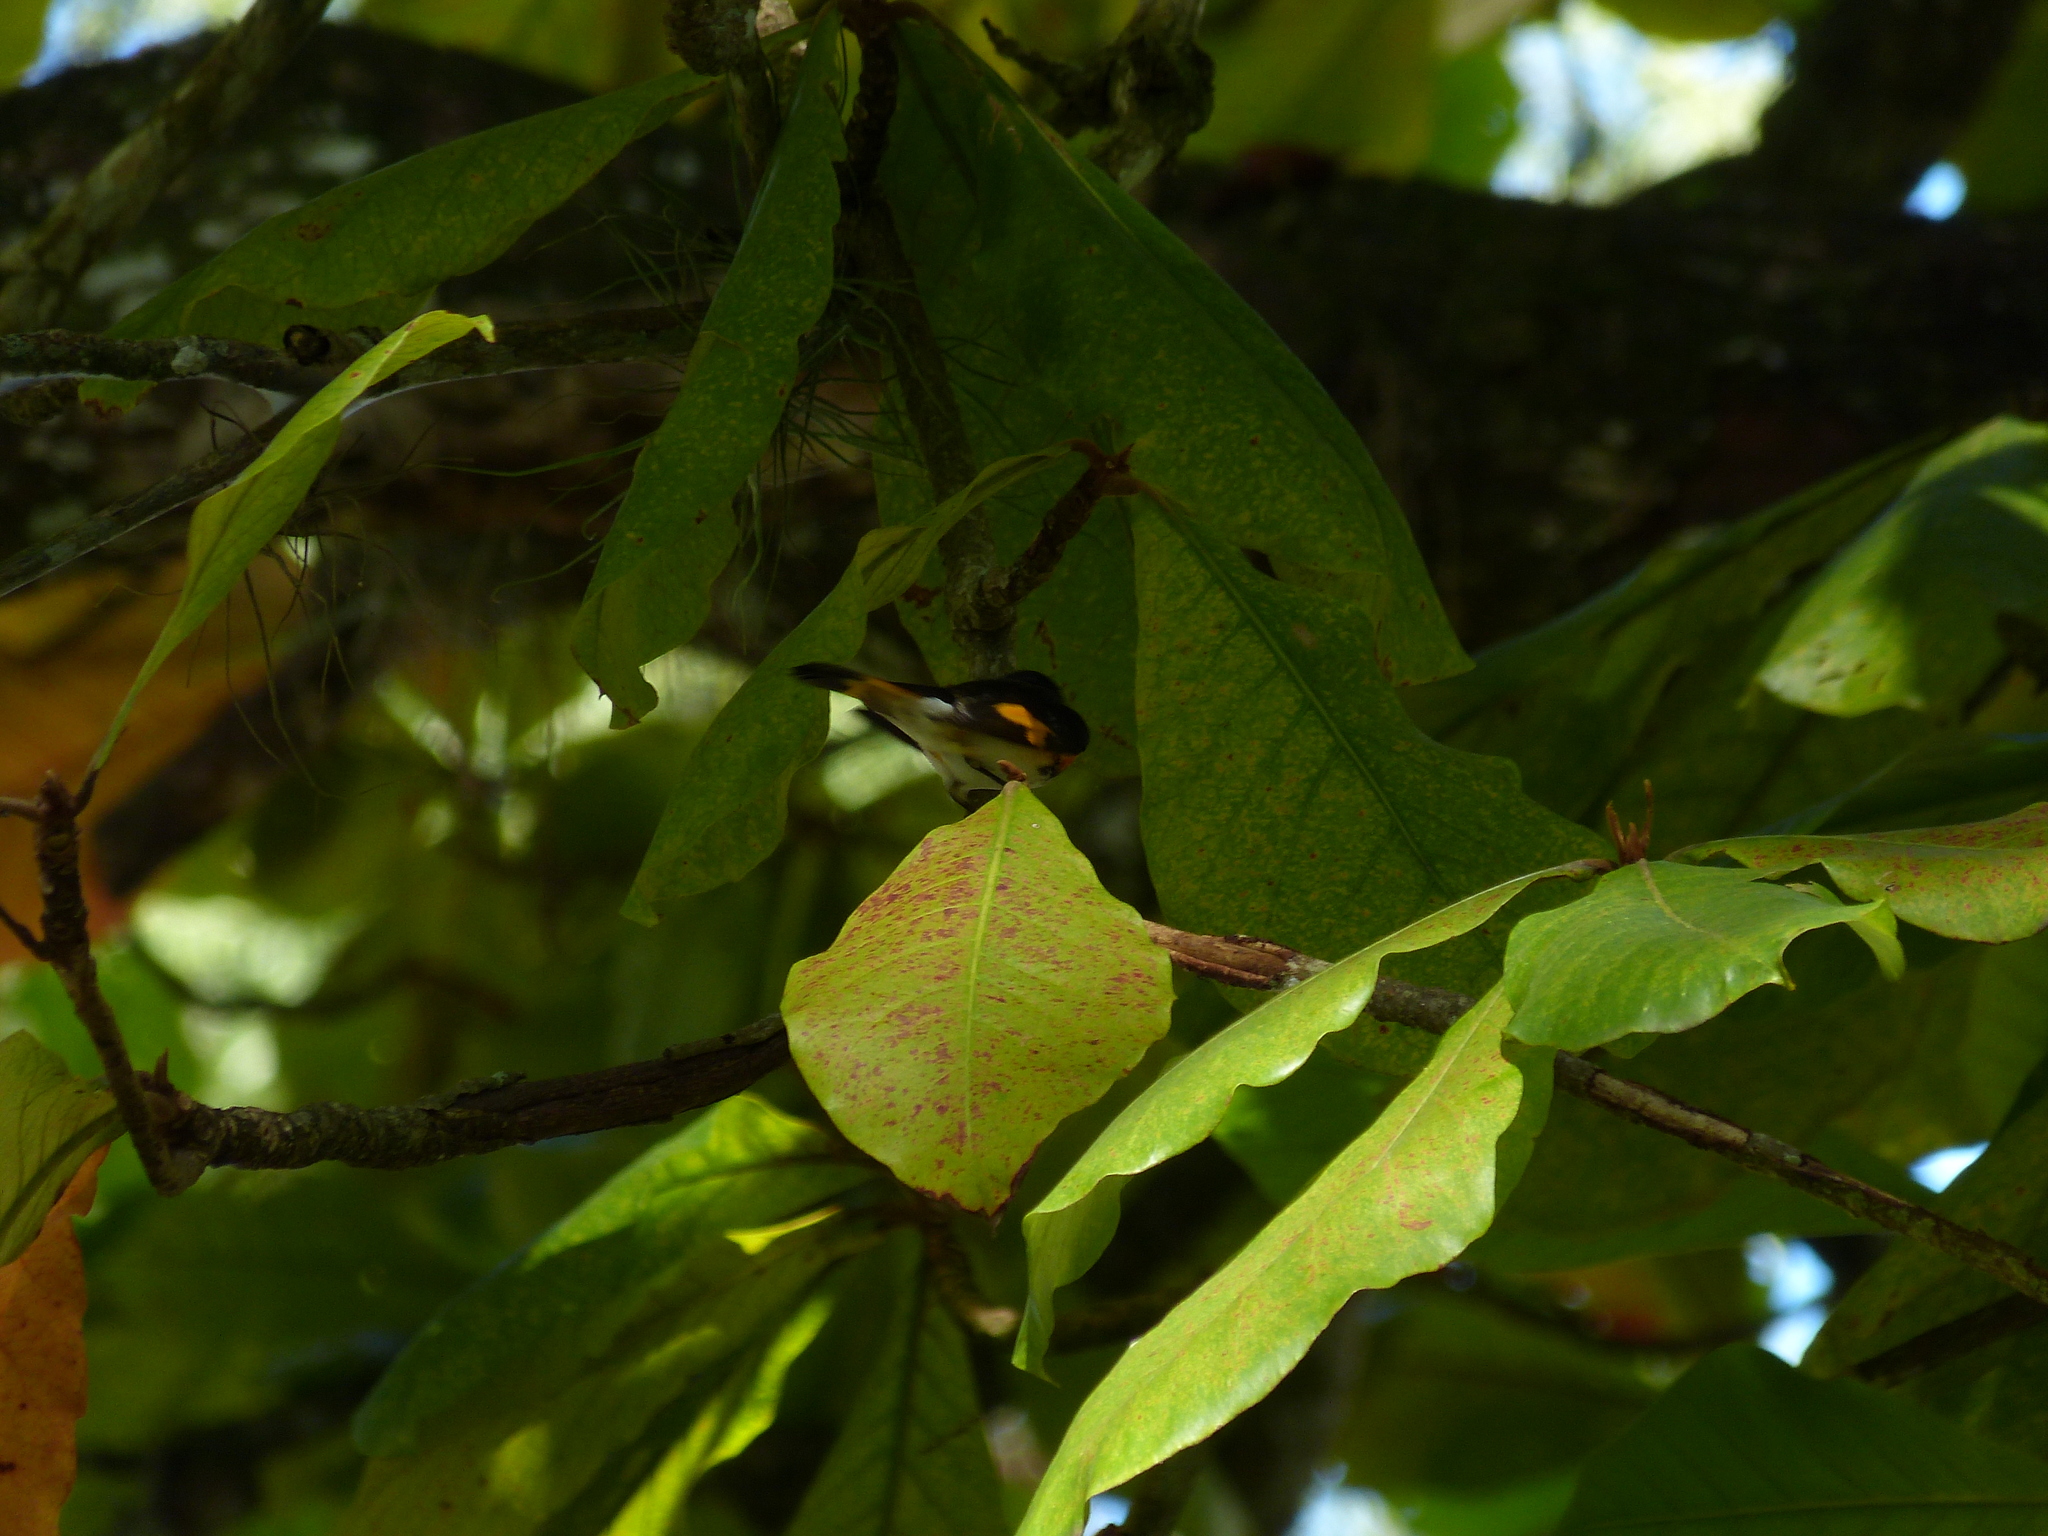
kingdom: Animalia
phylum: Chordata
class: Aves
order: Passeriformes
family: Parulidae
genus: Setophaga
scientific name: Setophaga ruticilla
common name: American redstart
